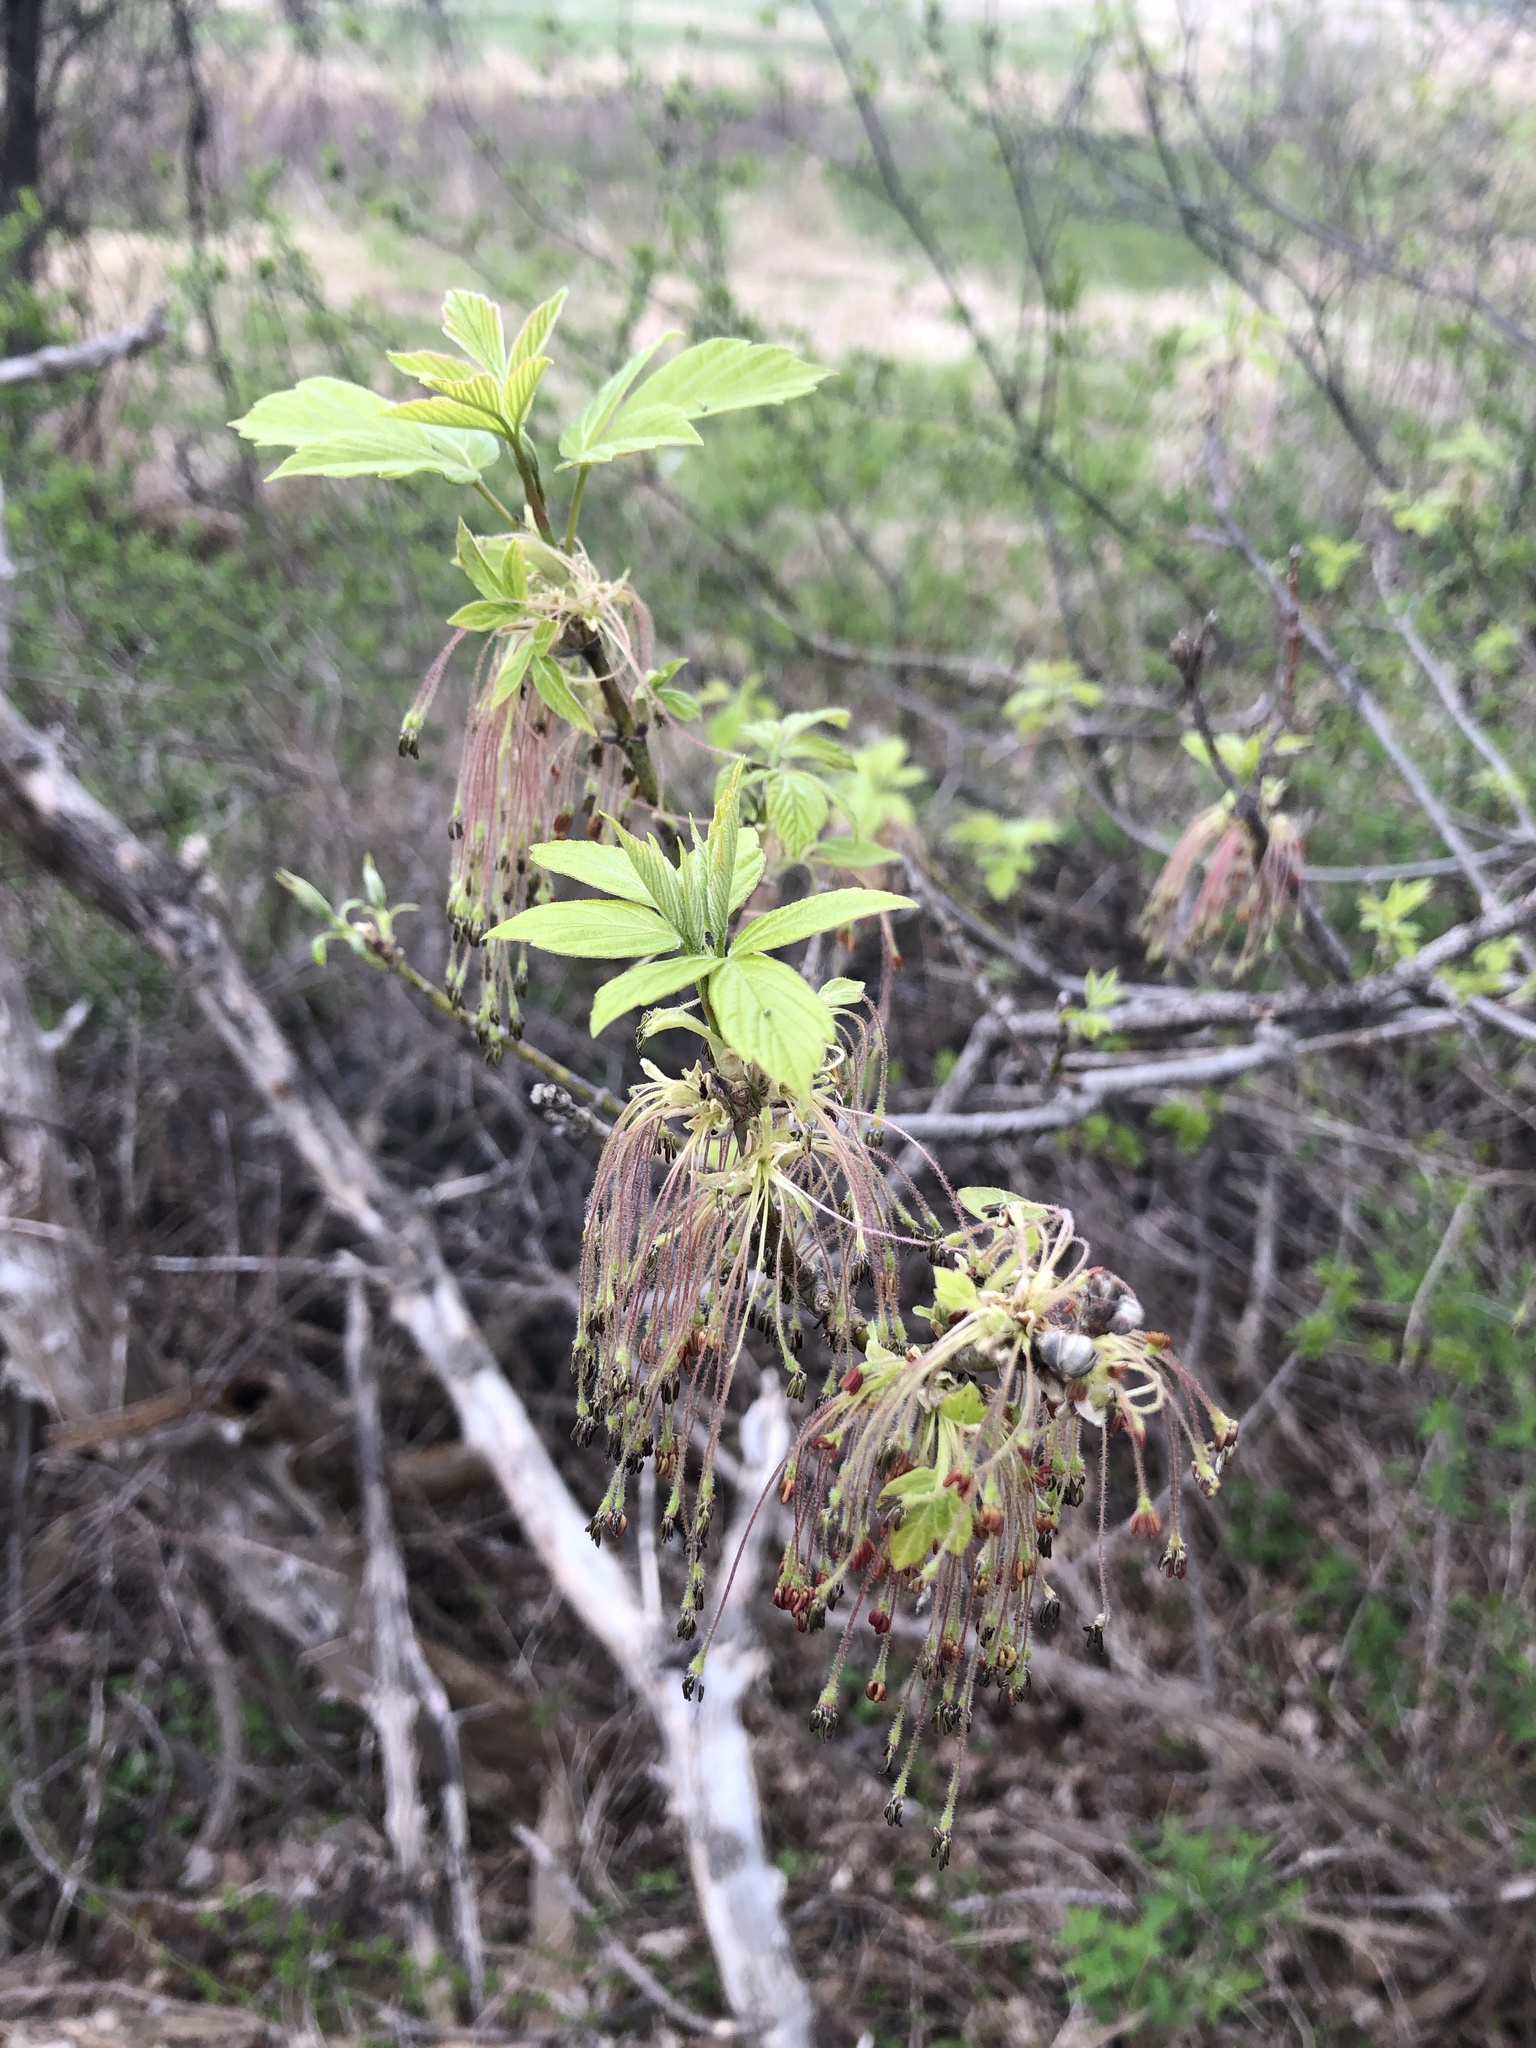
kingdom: Plantae
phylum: Tracheophyta
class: Magnoliopsida
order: Sapindales
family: Sapindaceae
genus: Acer
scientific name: Acer negundo
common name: Ashleaf maple
